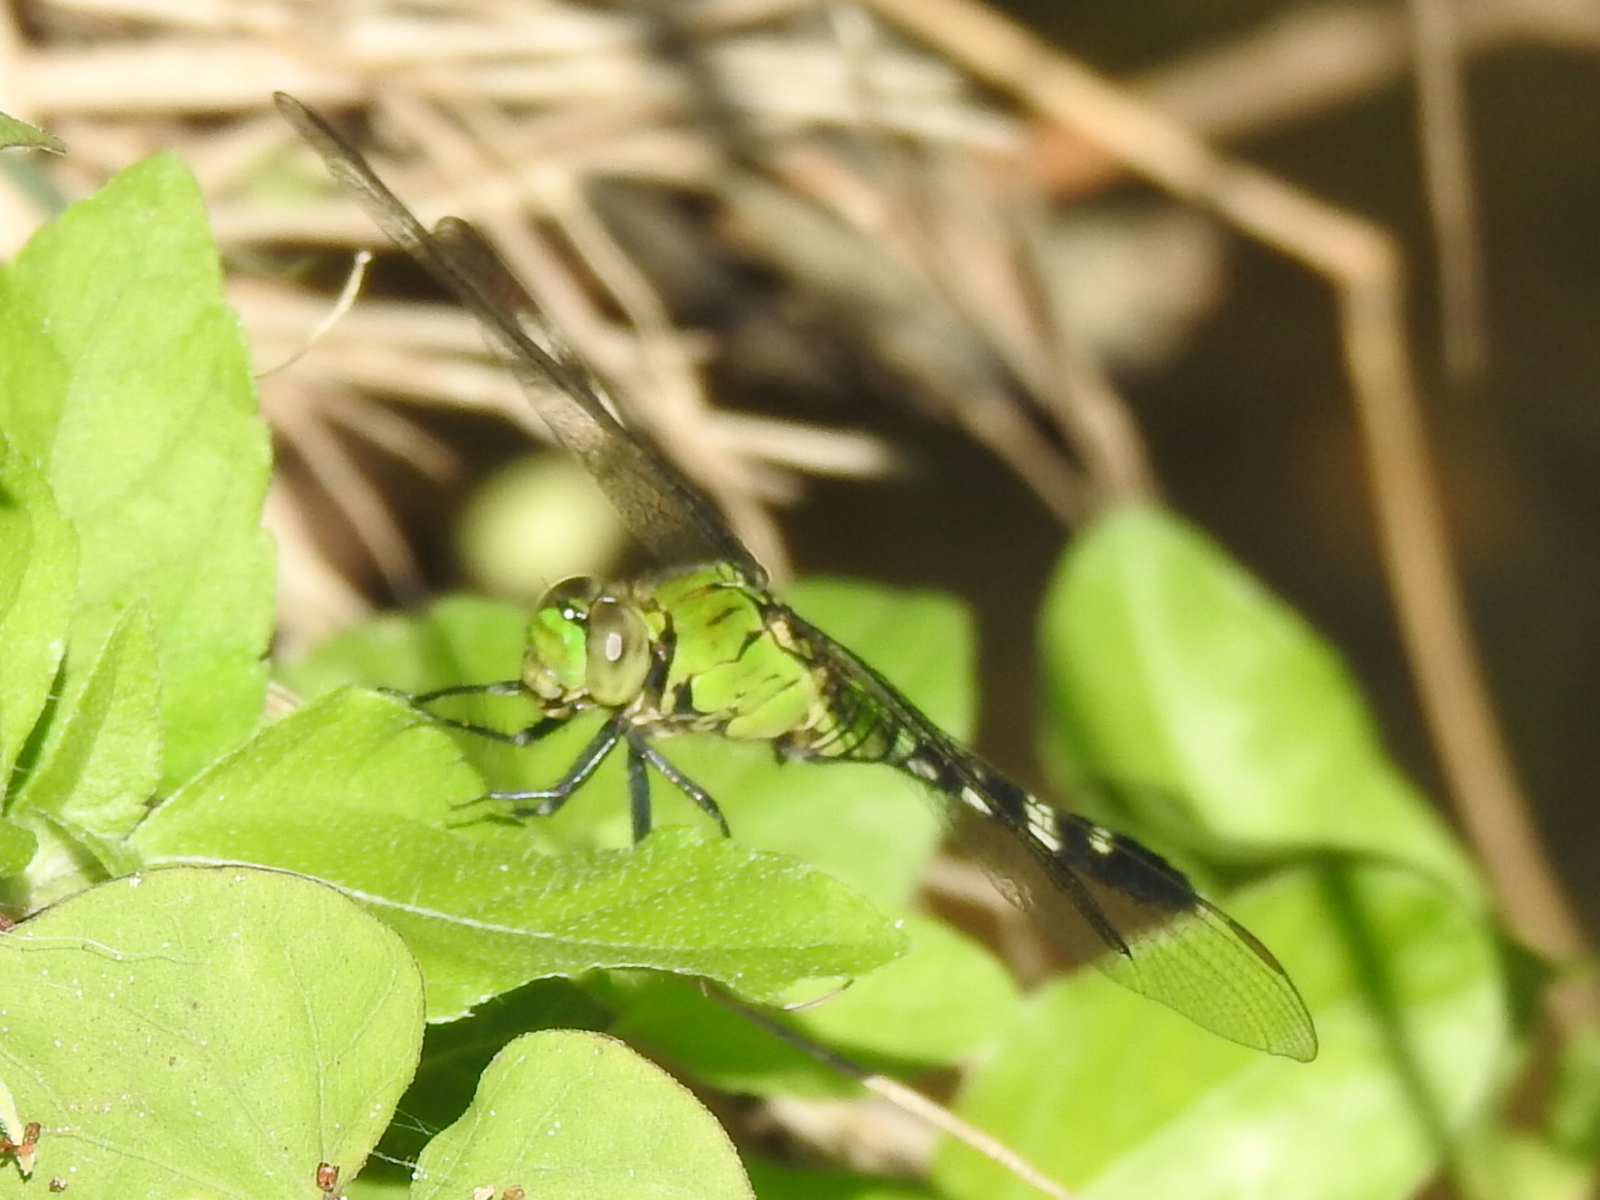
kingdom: Animalia
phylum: Arthropoda
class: Insecta
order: Odonata
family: Libellulidae
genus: Erythemis
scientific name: Erythemis simplicicollis
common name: Eastern pondhawk
